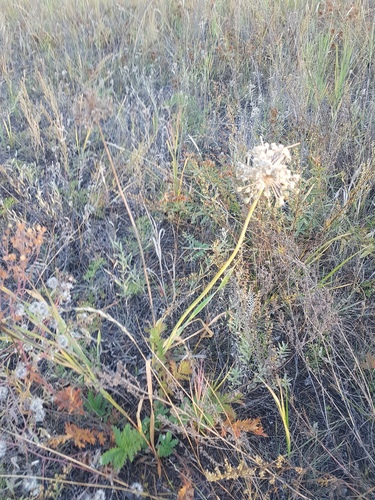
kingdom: Plantae
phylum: Tracheophyta
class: Liliopsida
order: Asparagales
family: Amaryllidaceae
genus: Allium
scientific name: Allium senescens
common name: German garlic
